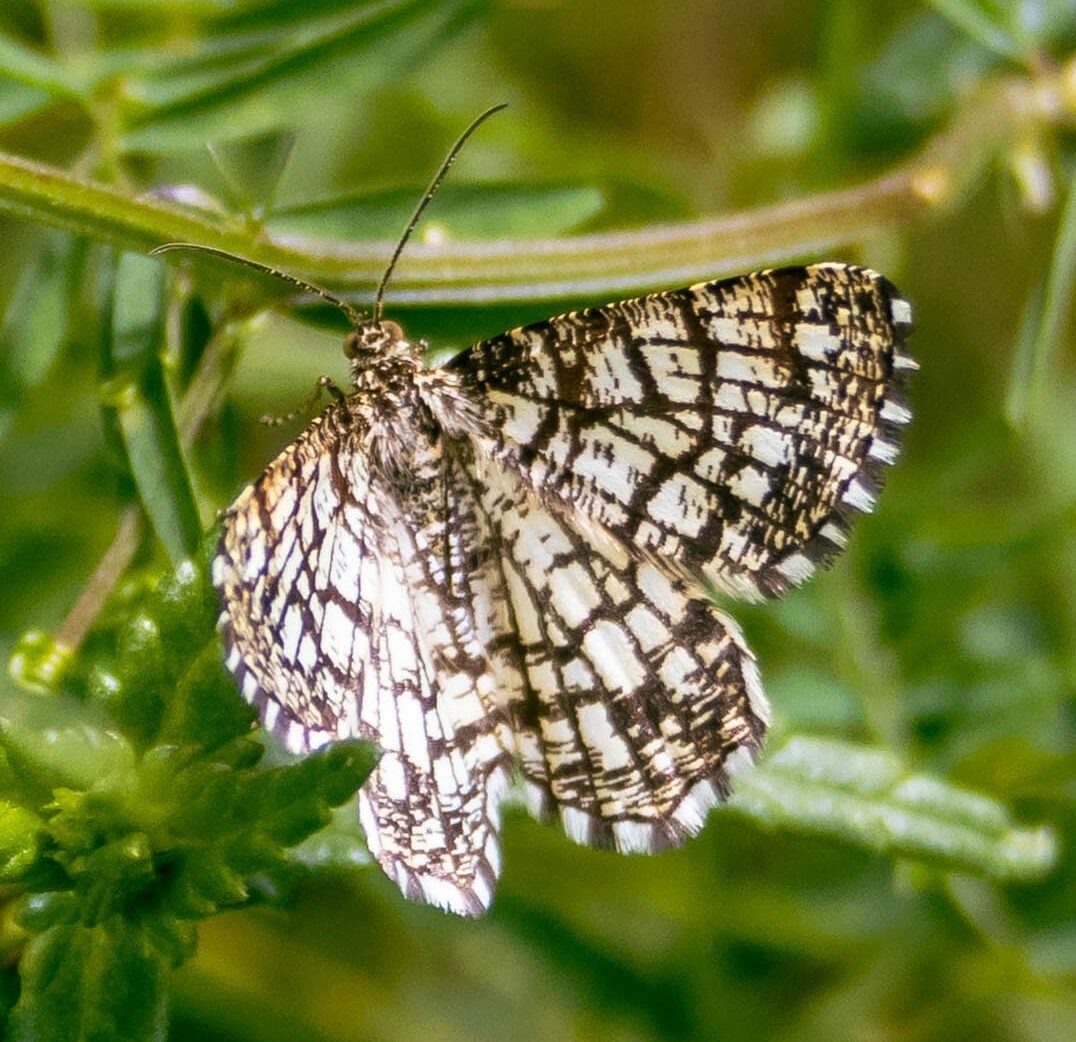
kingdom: Animalia
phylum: Arthropoda
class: Insecta
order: Lepidoptera
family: Geometridae
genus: Chiasmia
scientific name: Chiasmia clathrata
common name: Latticed heath
